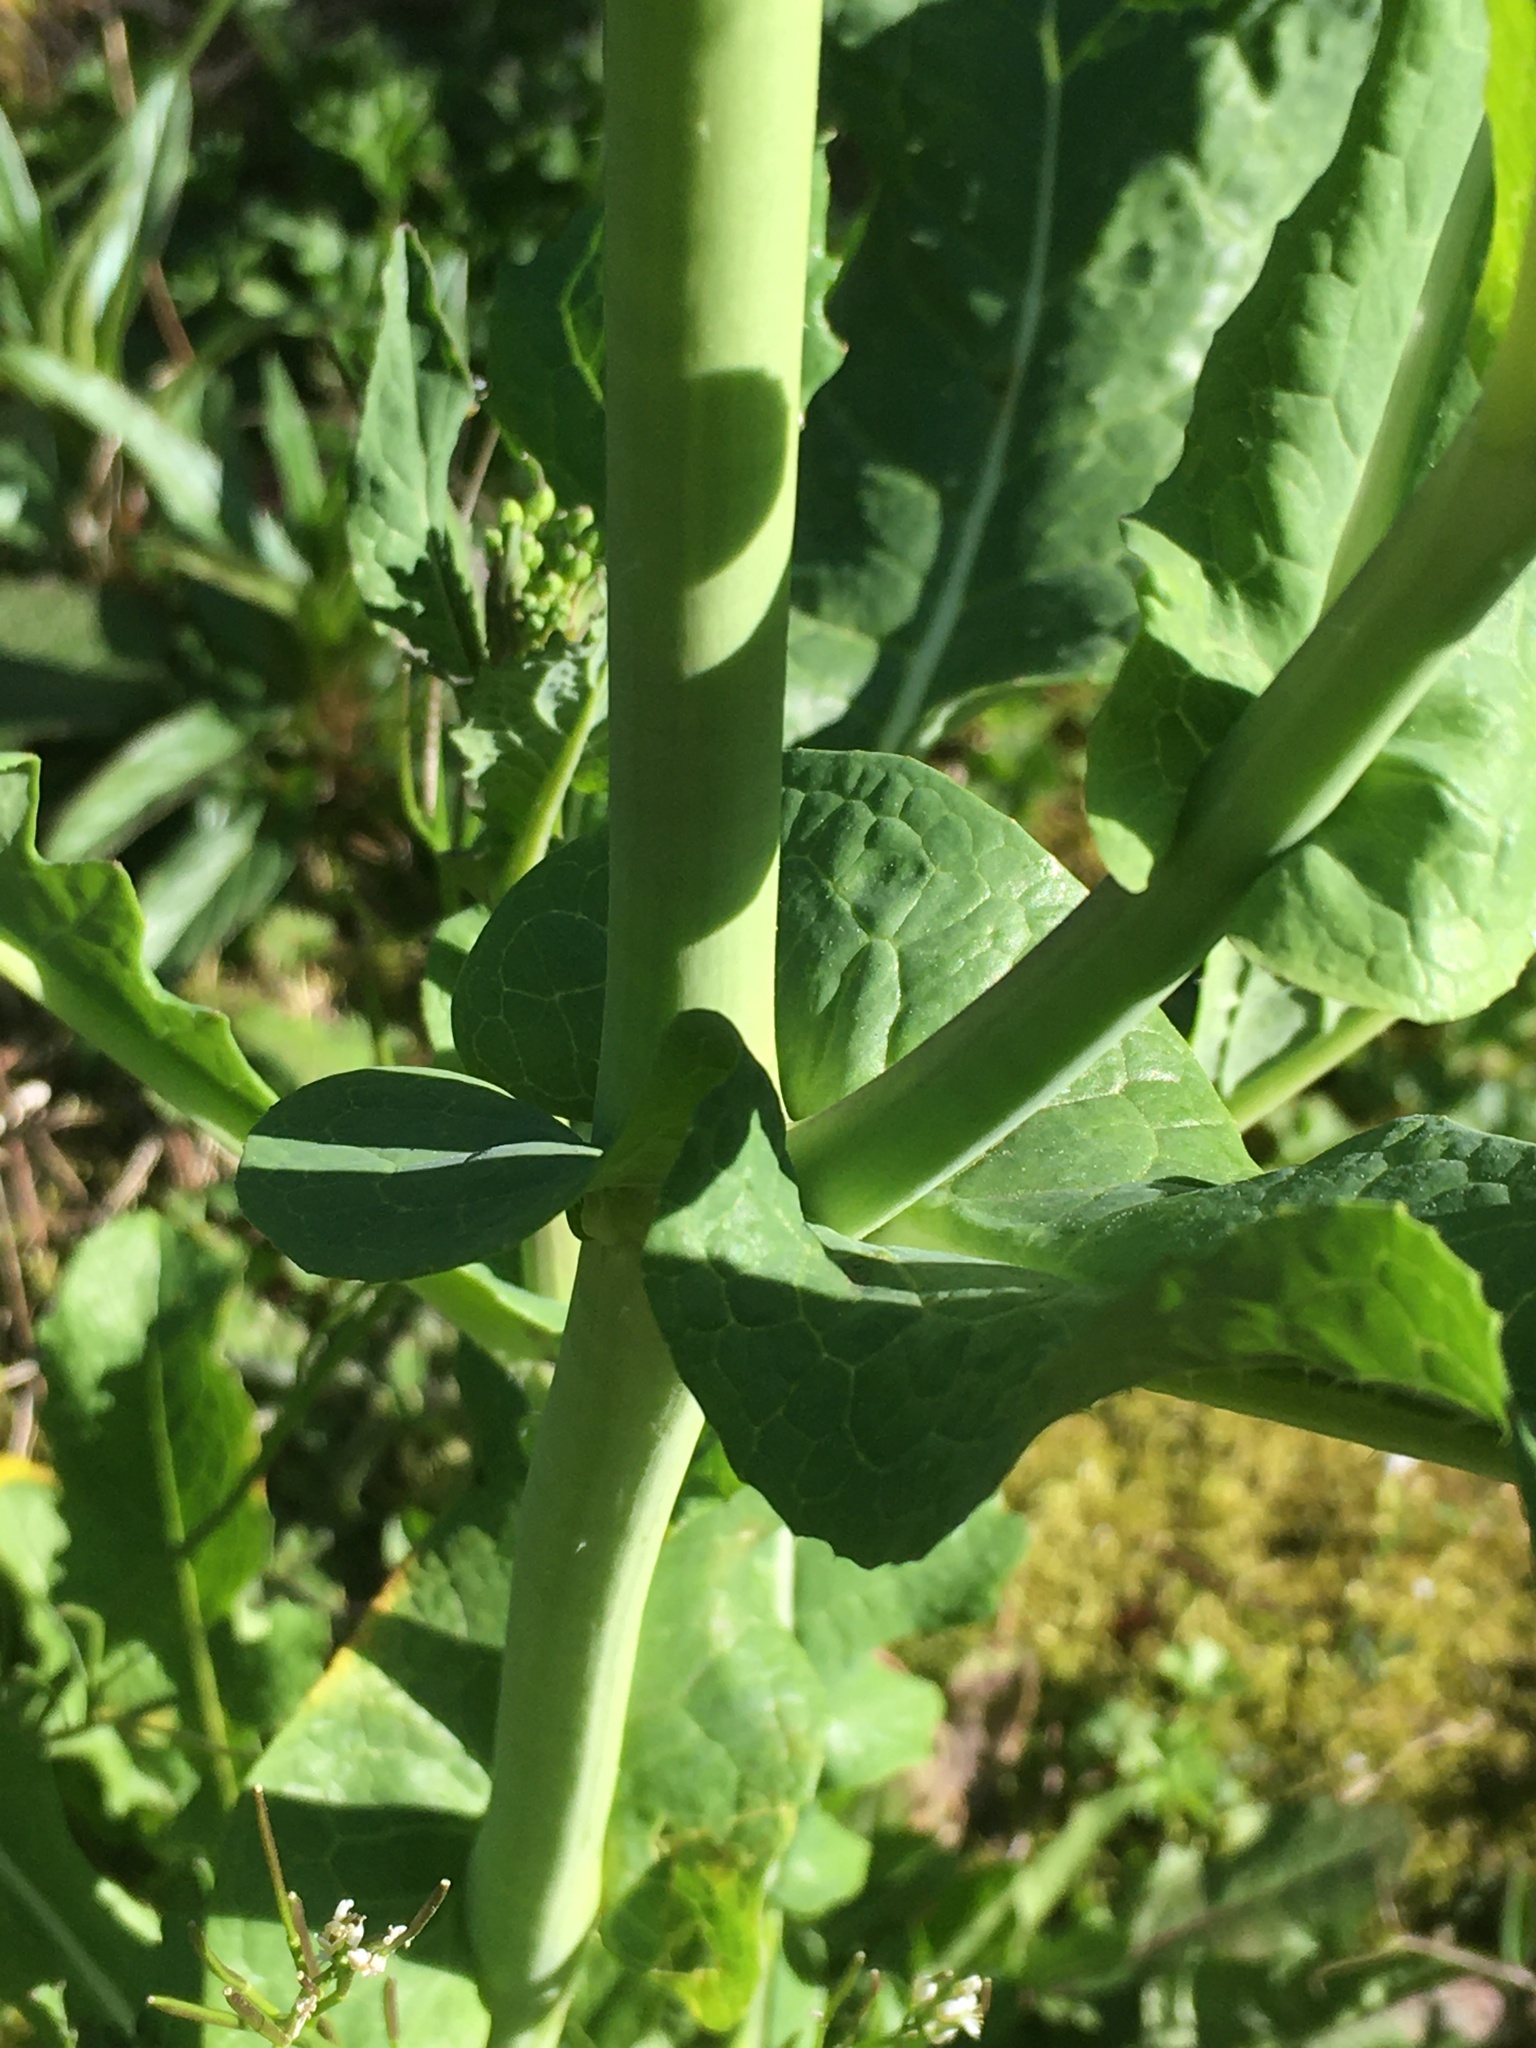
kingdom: Plantae
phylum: Tracheophyta
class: Magnoliopsida
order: Brassicales
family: Brassicaceae
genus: Brassica
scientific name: Brassica rapa
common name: Field mustard
